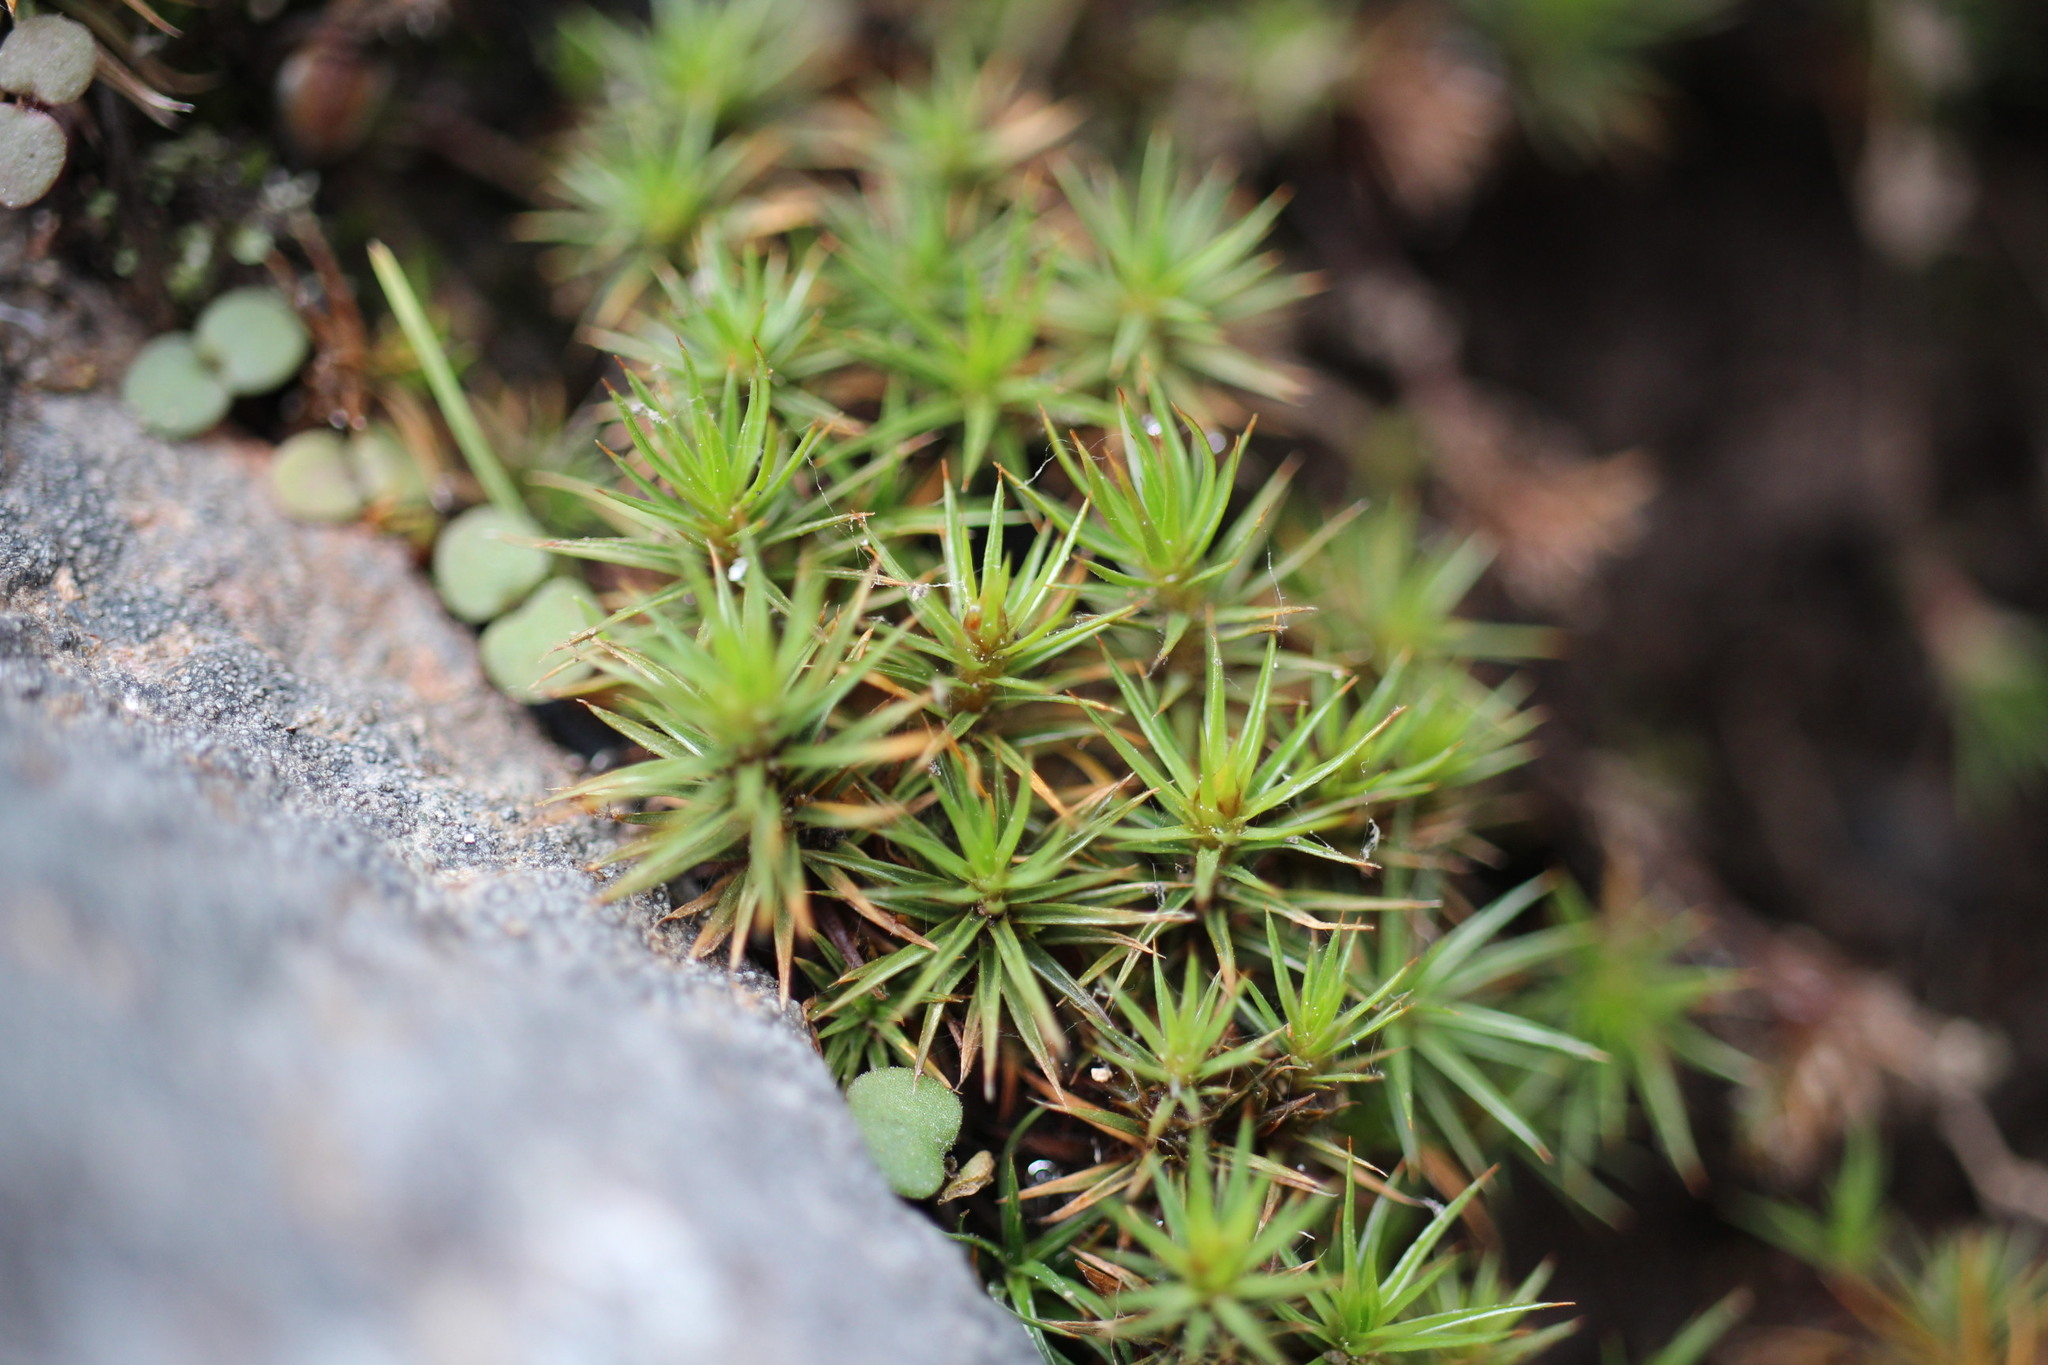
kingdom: Plantae
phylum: Bryophyta
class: Polytrichopsida
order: Polytrichales
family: Polytrichaceae
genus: Polytrichum
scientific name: Polytrichum juniperinum
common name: Juniper haircap moss
